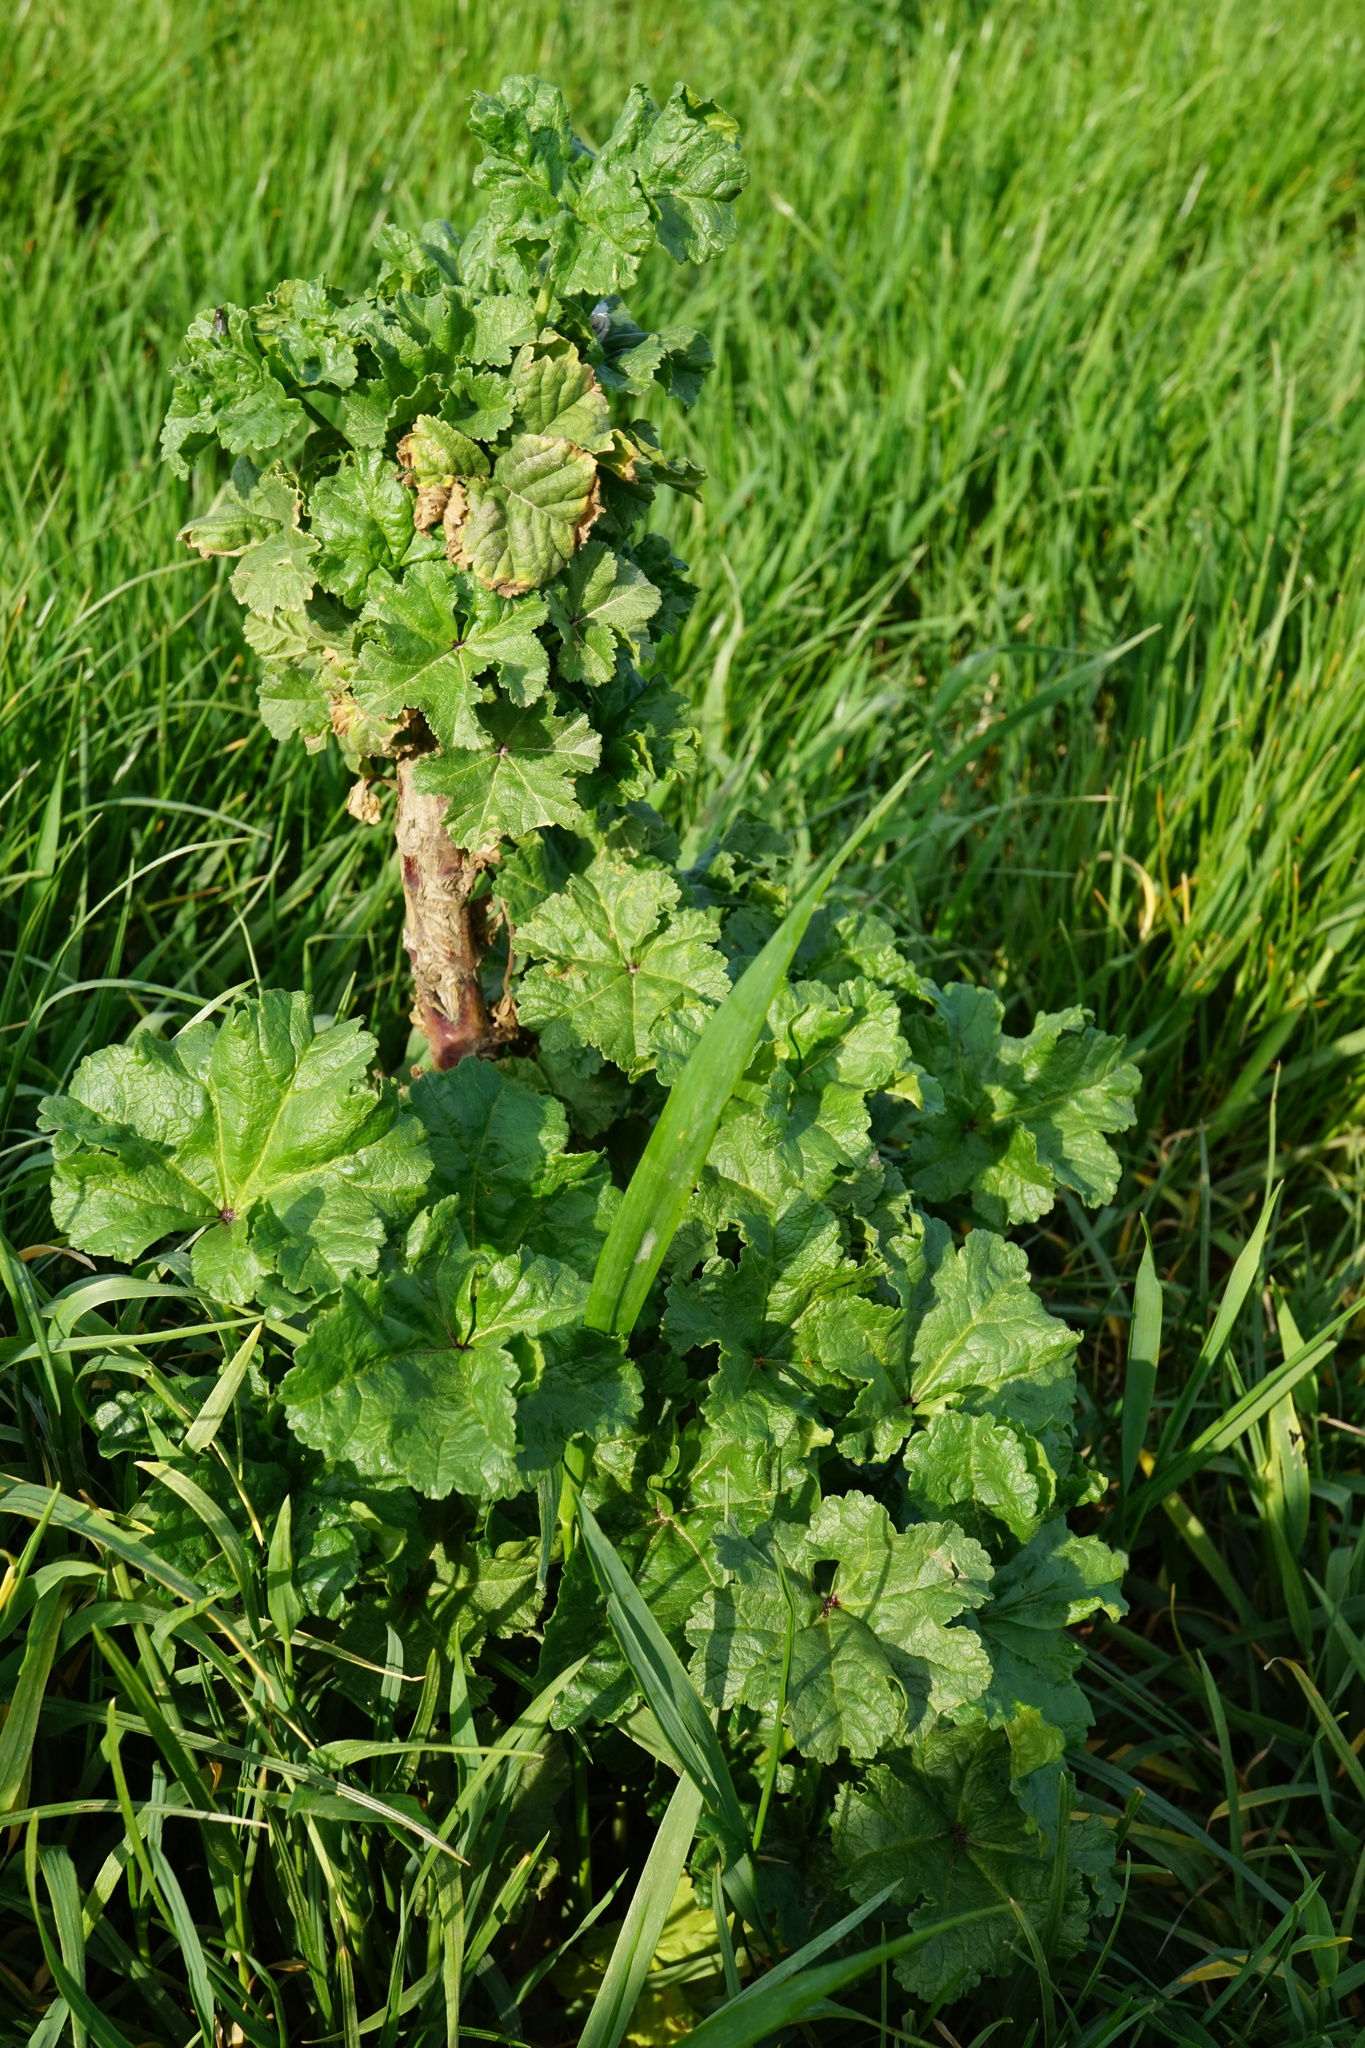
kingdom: Plantae
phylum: Tracheophyta
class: Magnoliopsida
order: Malvales
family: Malvaceae
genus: Malva
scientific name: Malva sylvestris
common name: Common mallow
